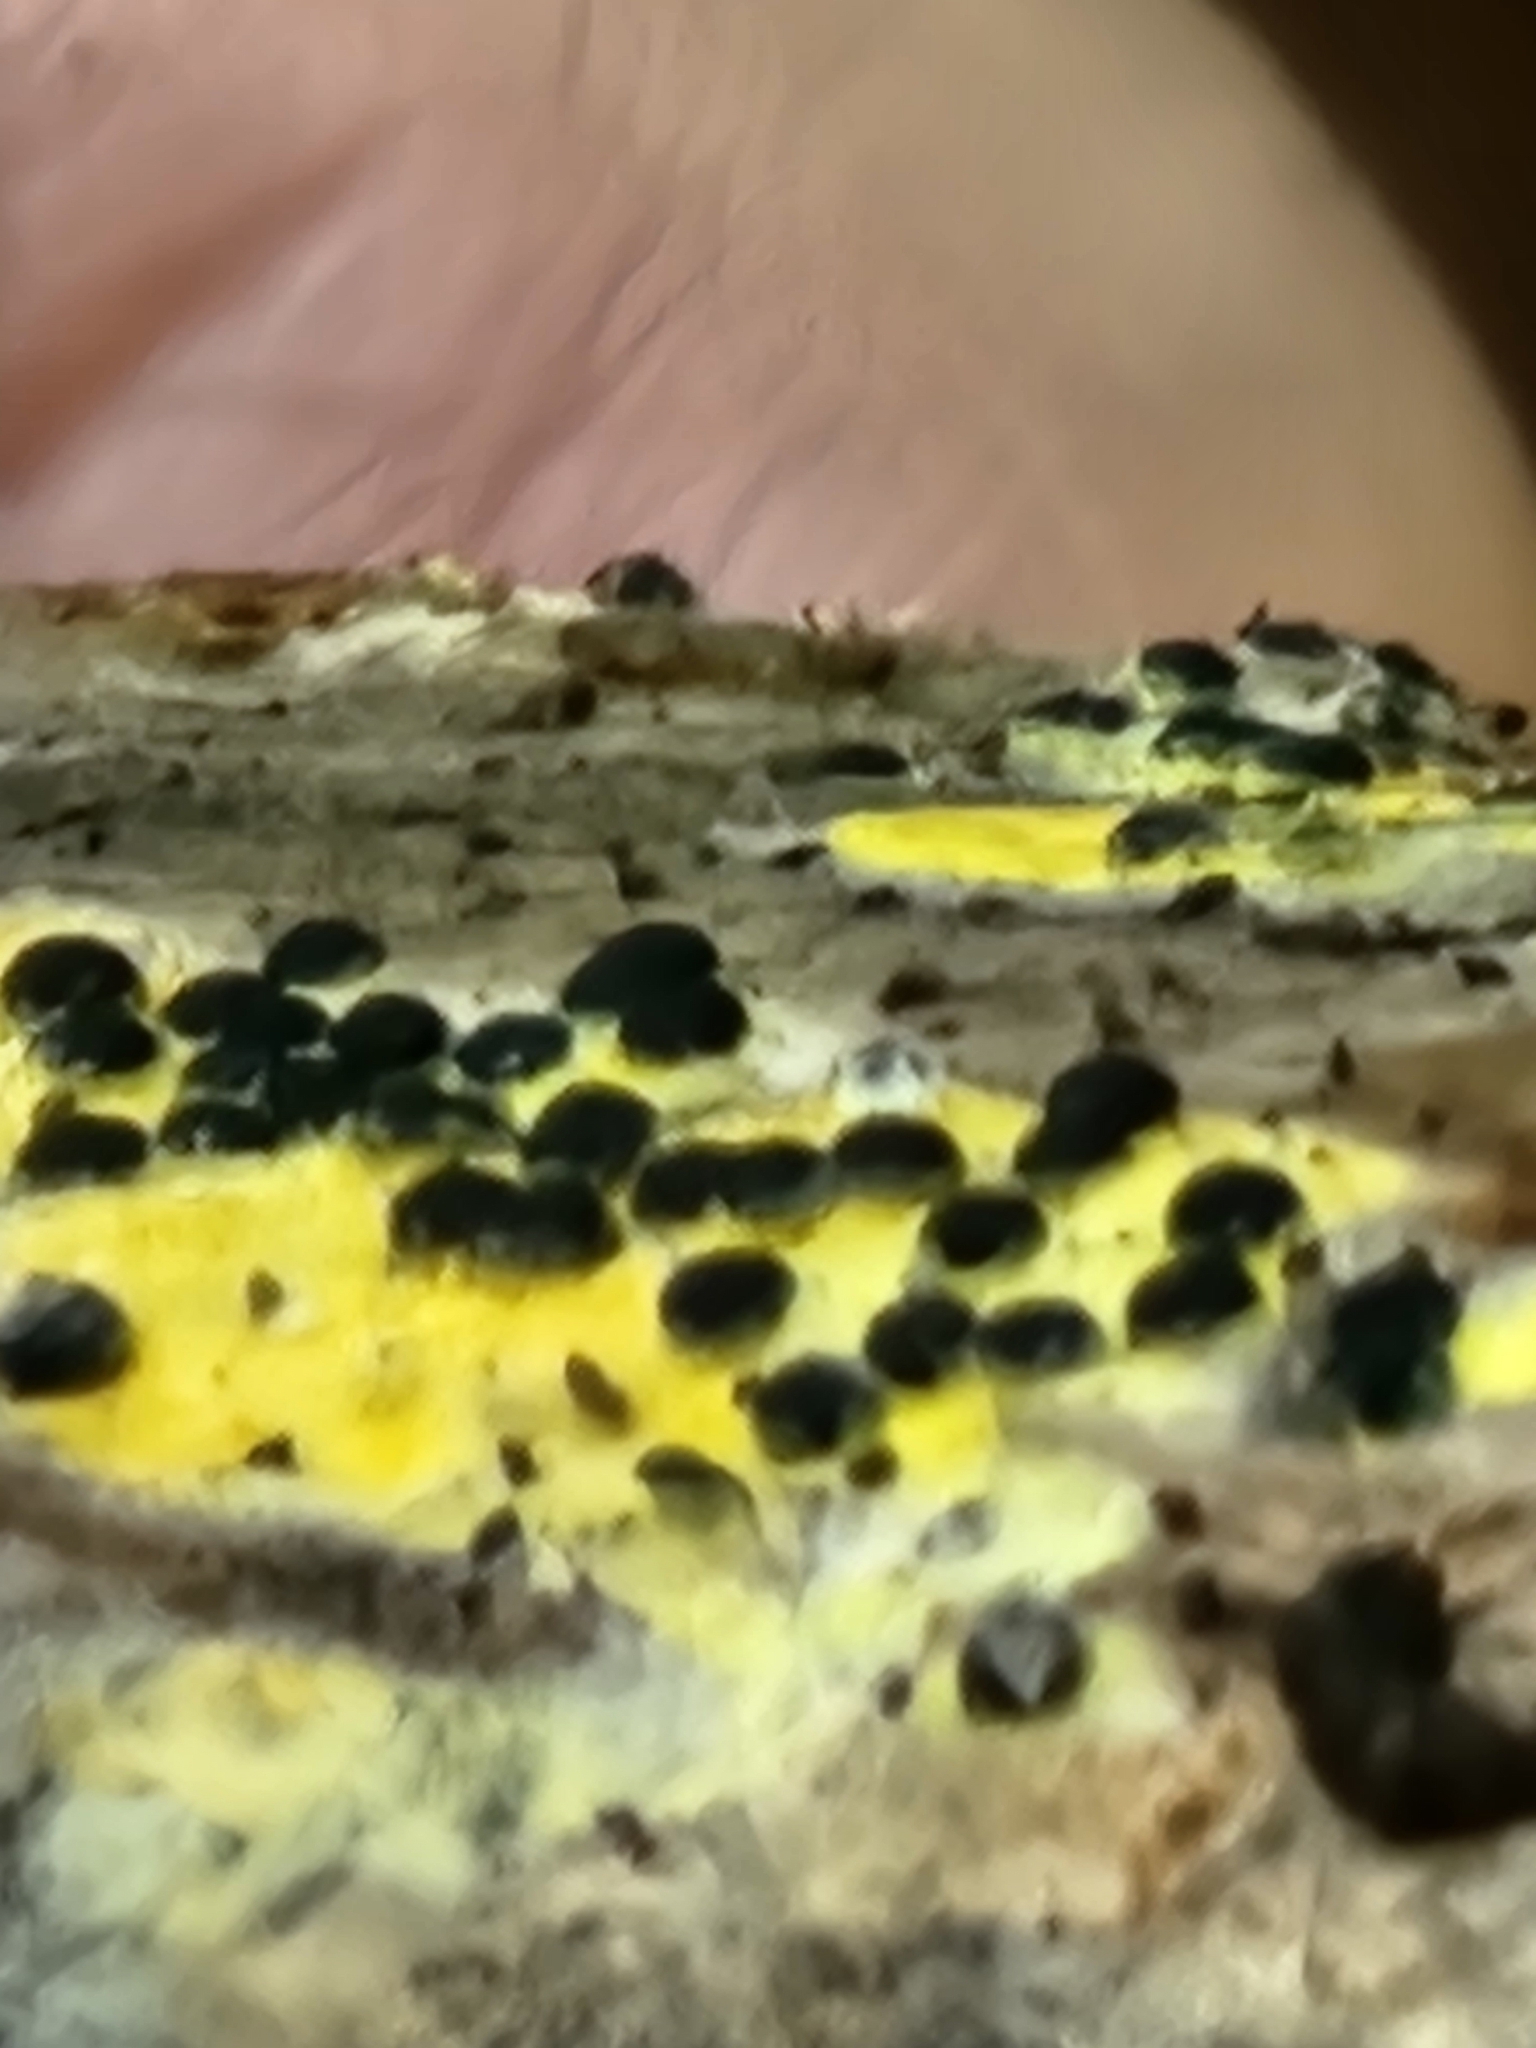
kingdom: Fungi
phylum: Ascomycota
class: Sordariomycetes
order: Xylariales
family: Xylariaceae
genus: Rosellinia
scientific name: Rosellinia subiculata
